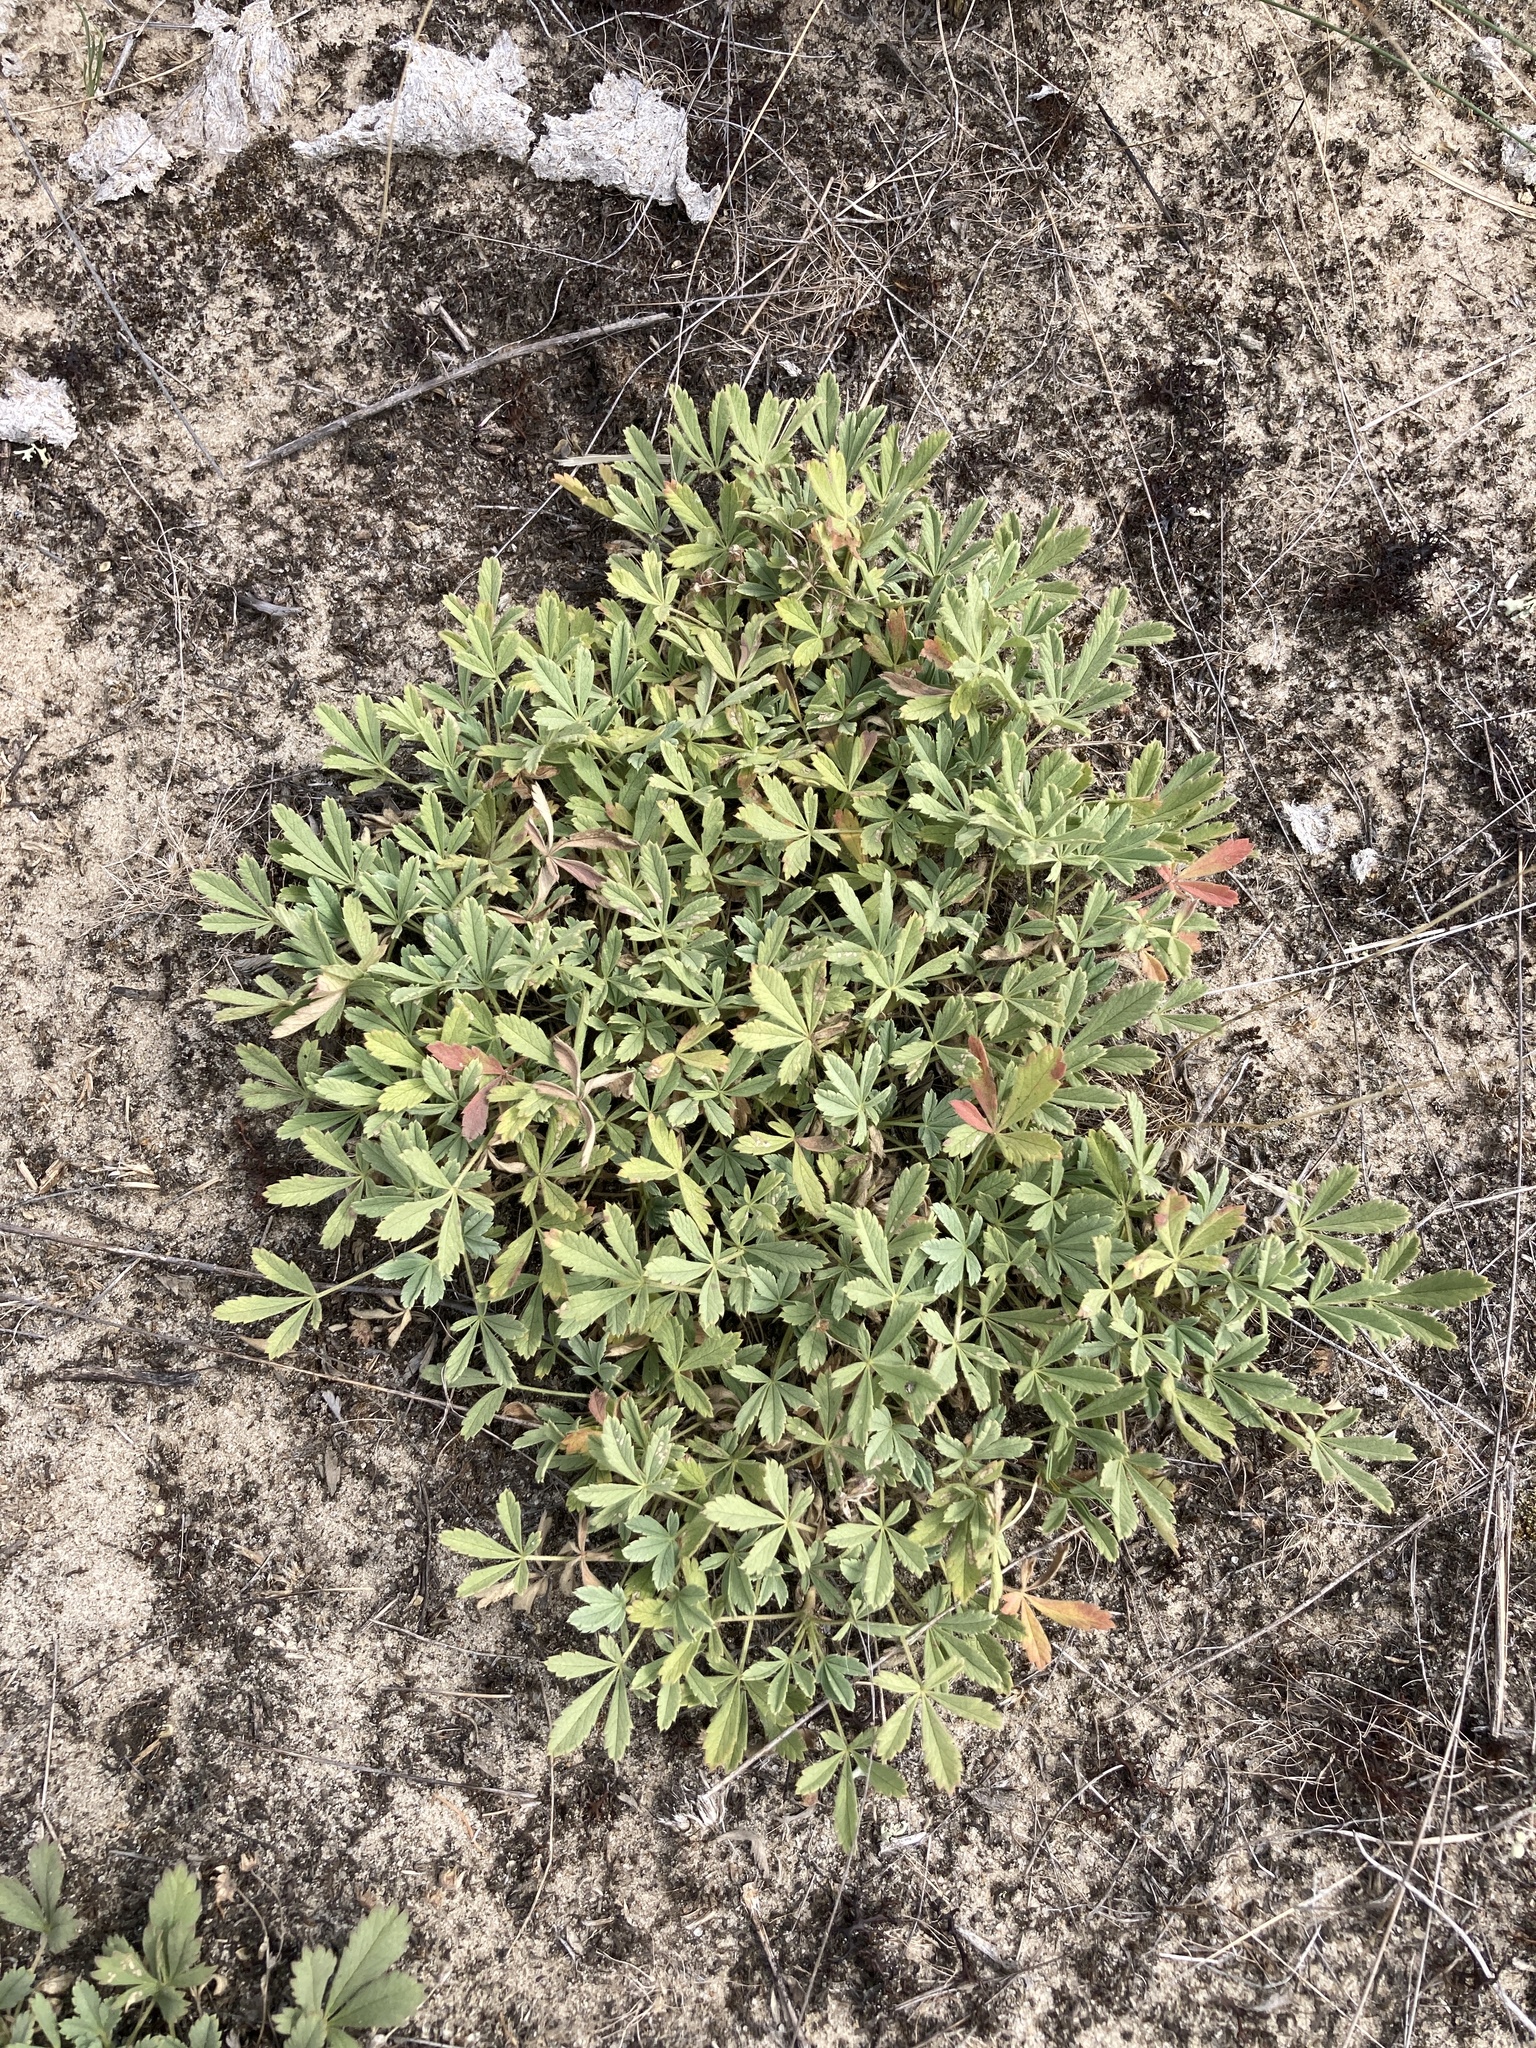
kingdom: Plantae
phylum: Tracheophyta
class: Magnoliopsida
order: Rosales
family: Rosaceae
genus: Potentilla
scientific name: Potentilla incana
